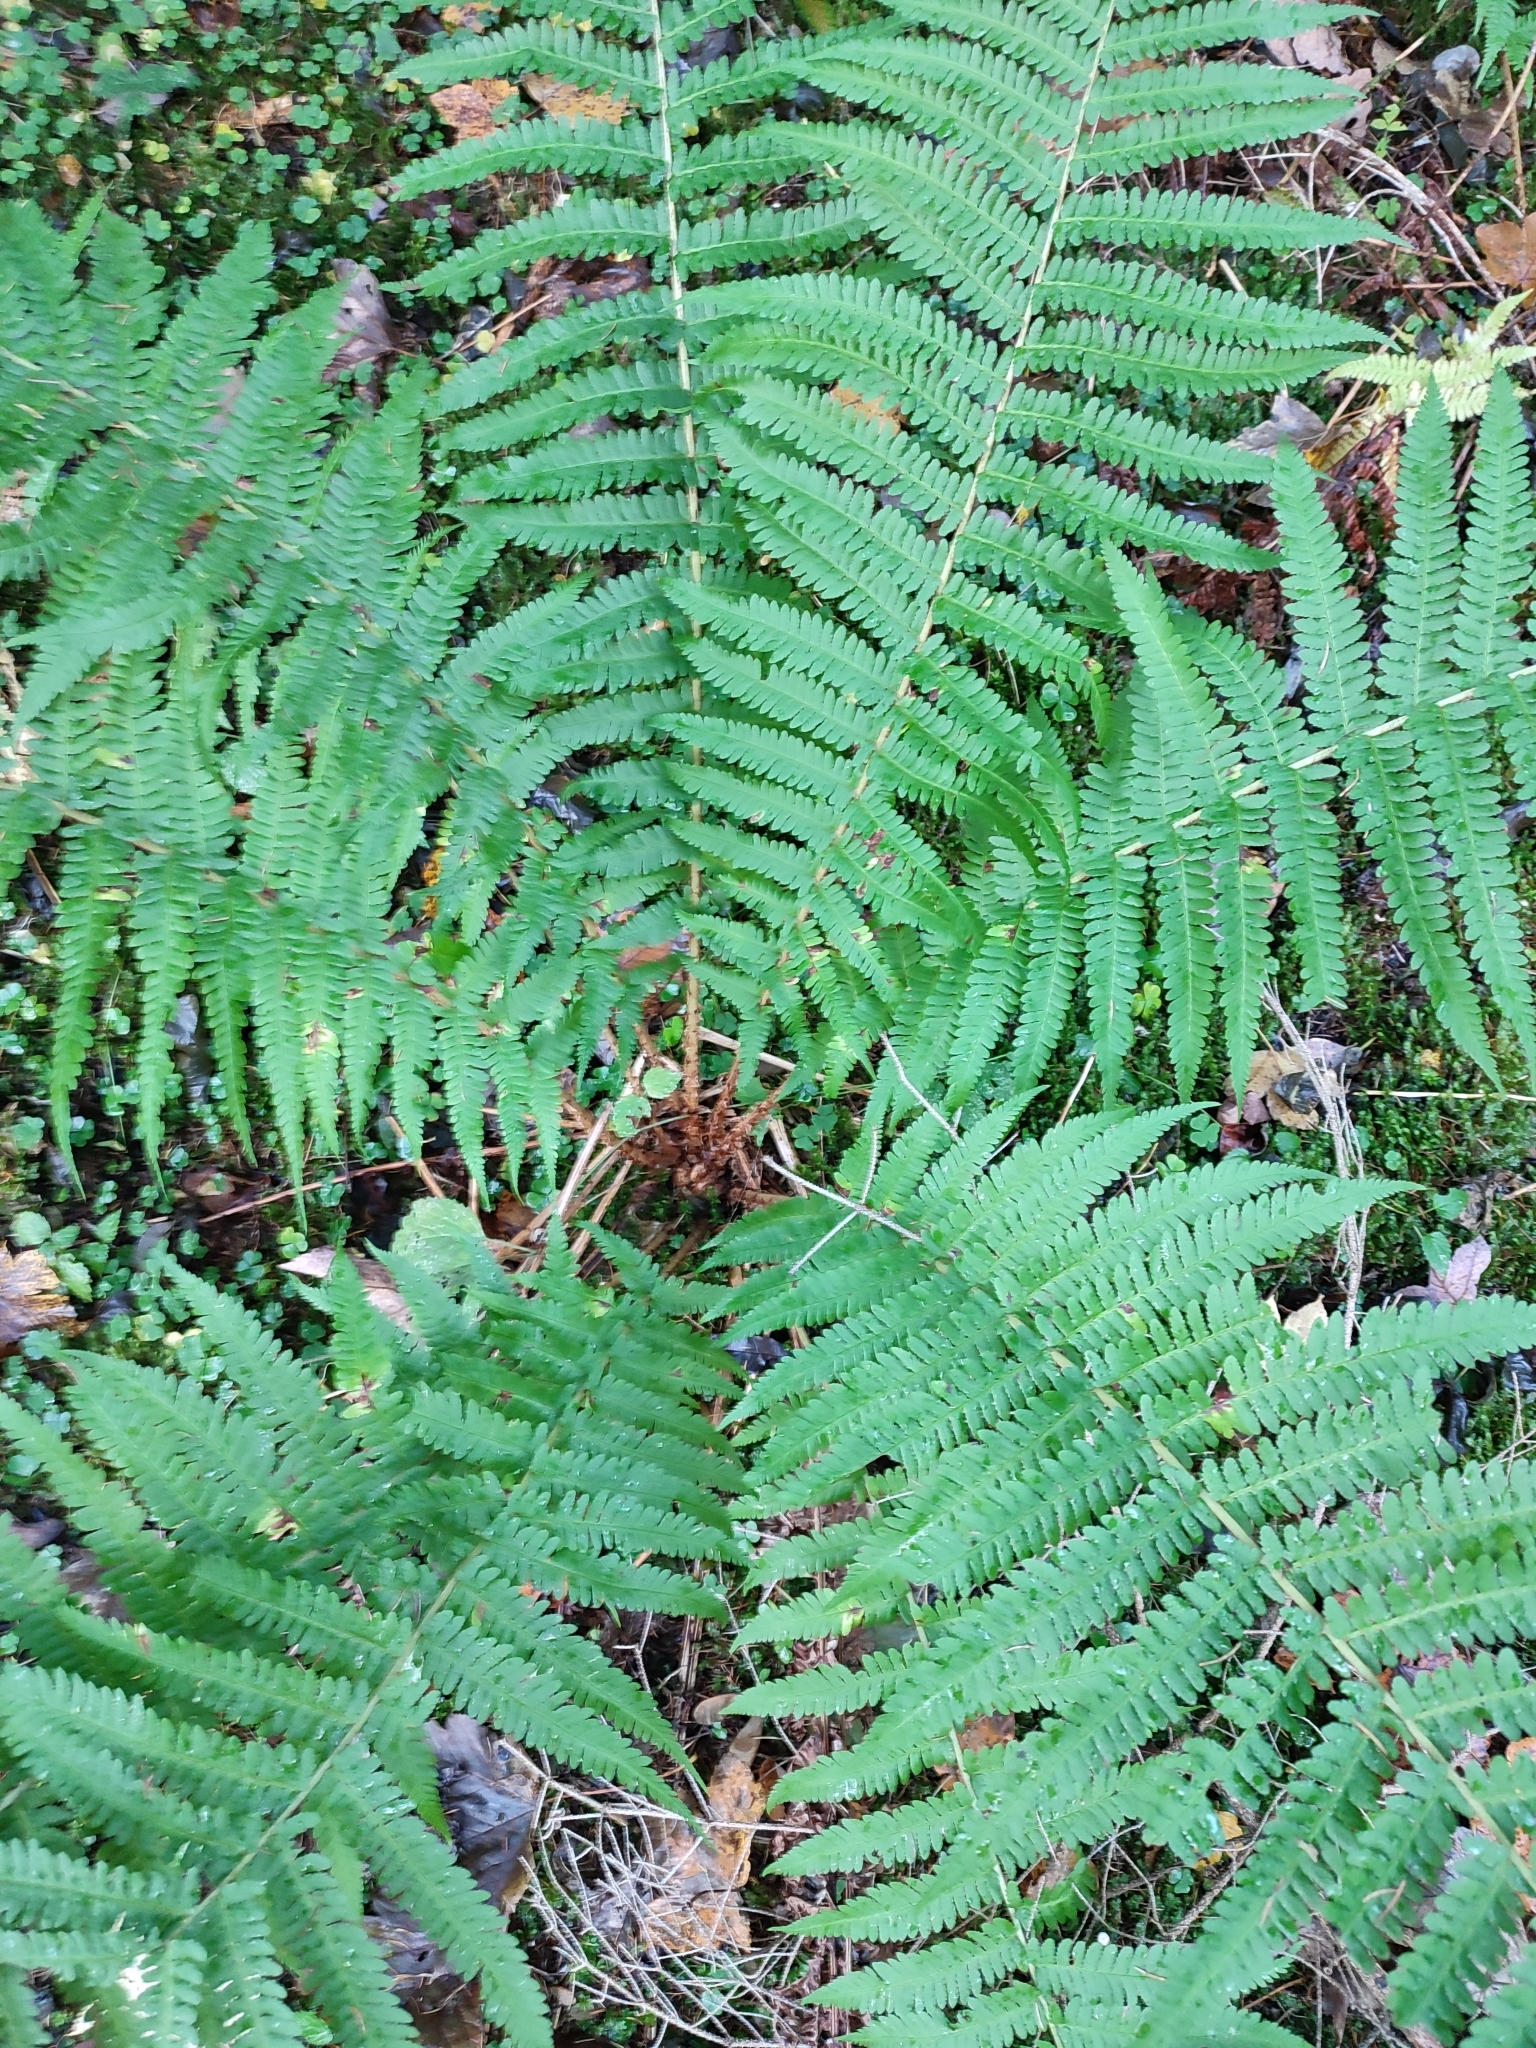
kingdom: Plantae
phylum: Tracheophyta
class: Polypodiopsida
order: Polypodiales
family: Dryopteridaceae
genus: Dryopteris
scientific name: Dryopteris filix-mas
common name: Male fern
